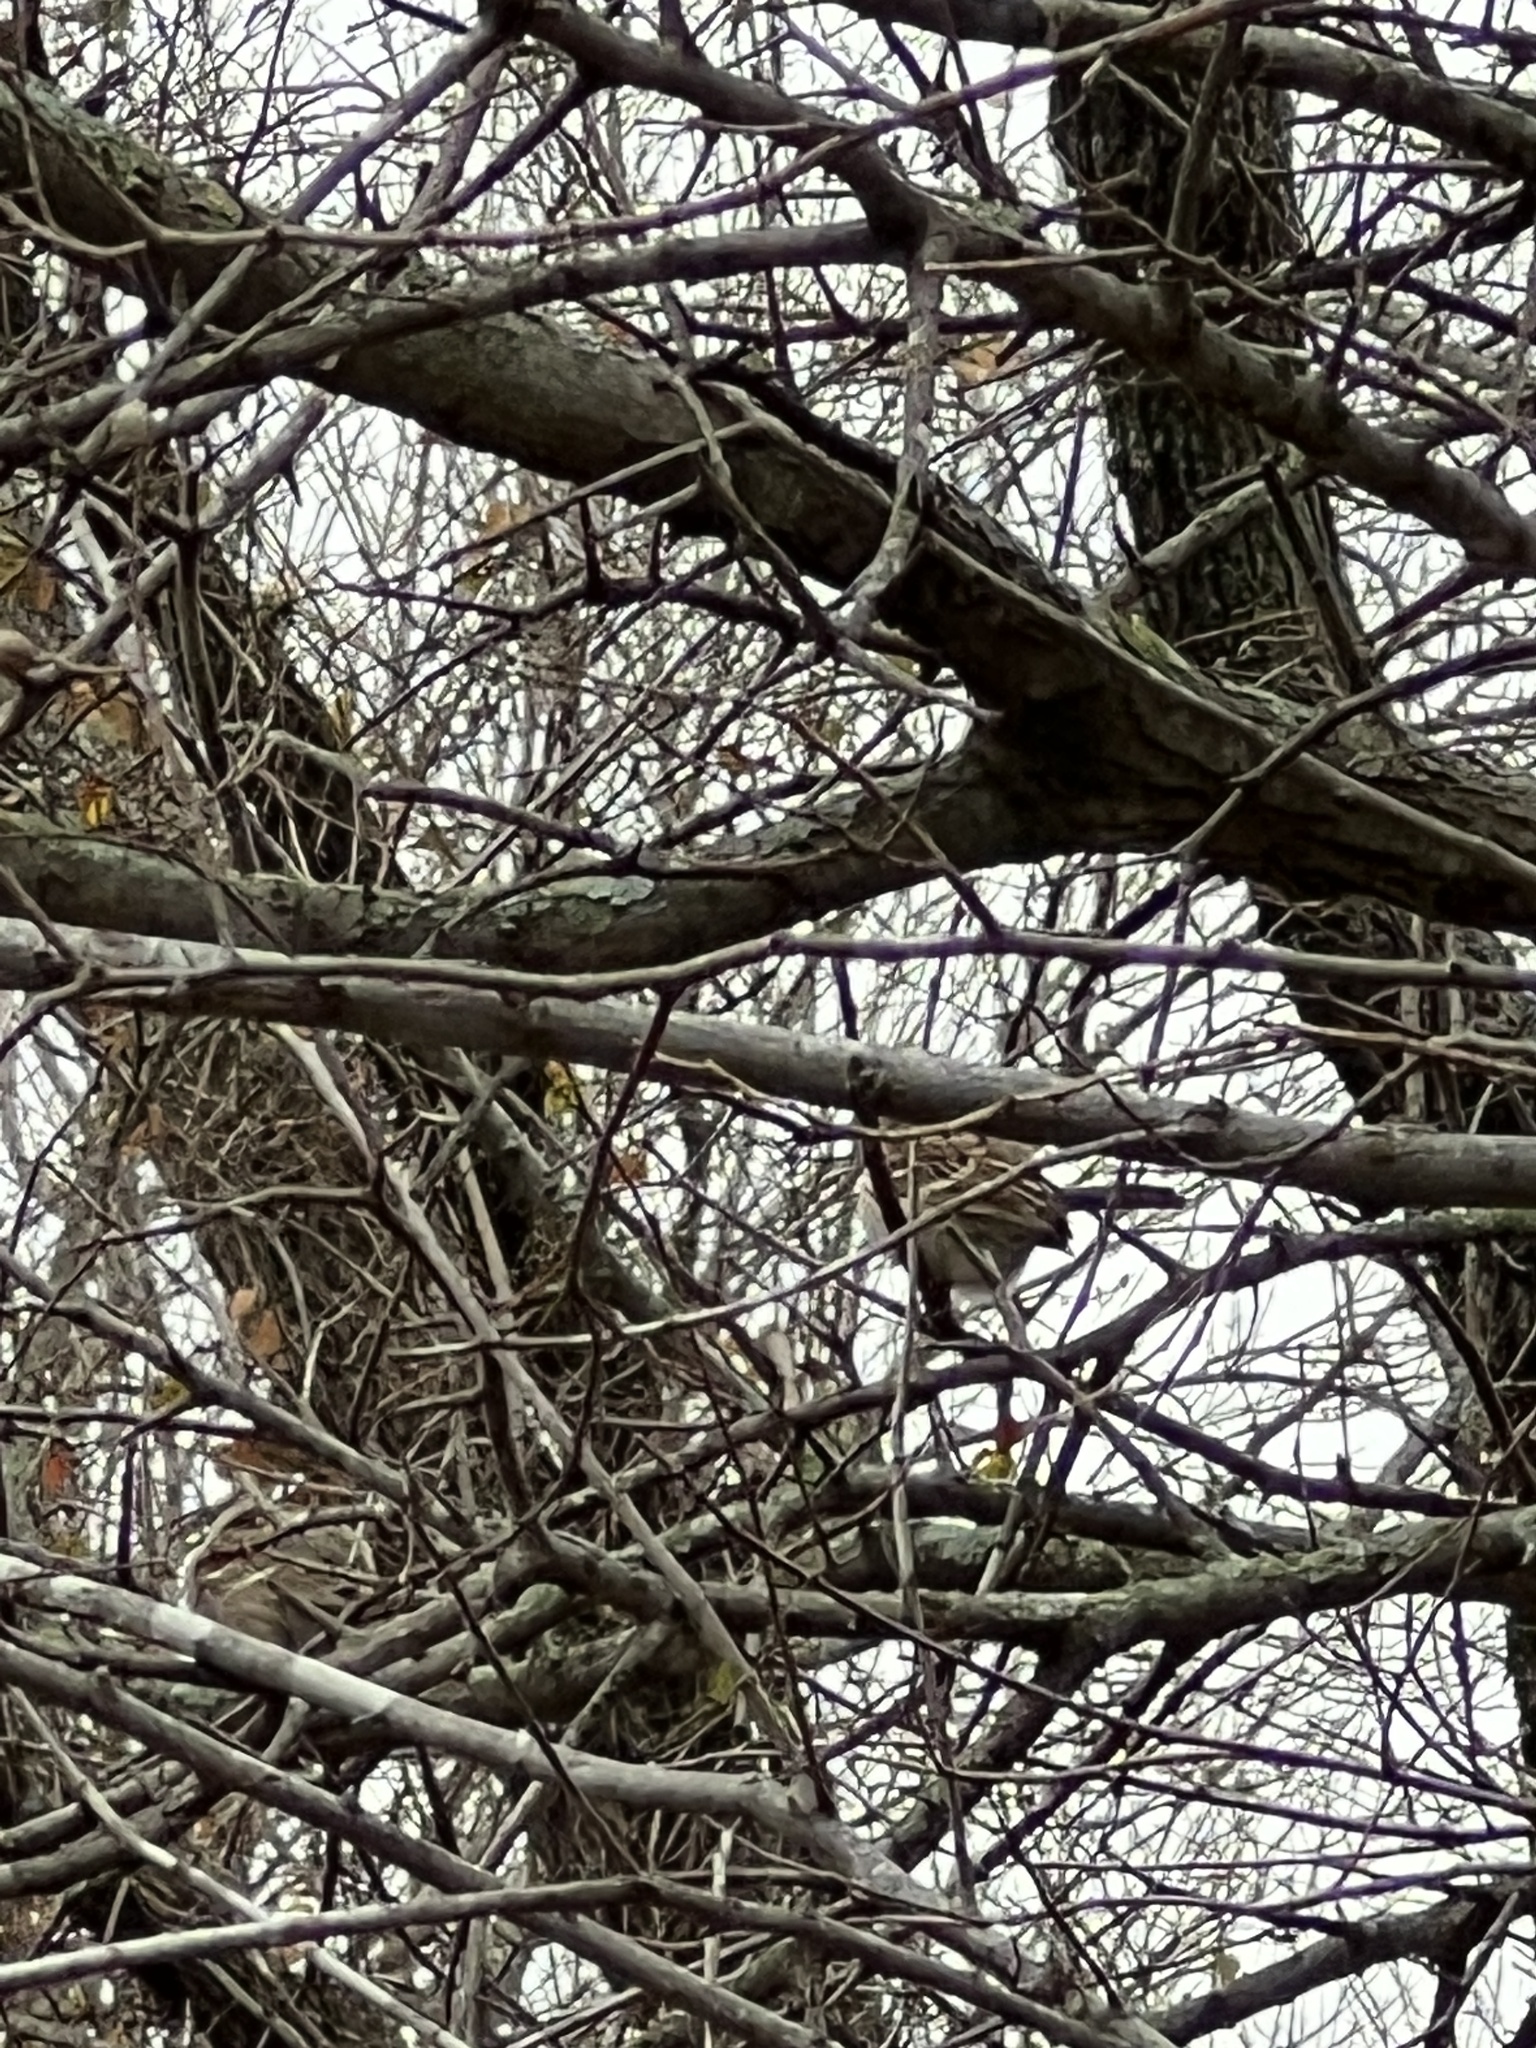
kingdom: Animalia
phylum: Chordata
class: Aves
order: Passeriformes
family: Passerellidae
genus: Spizella
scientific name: Spizella pusilla
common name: Field sparrow
